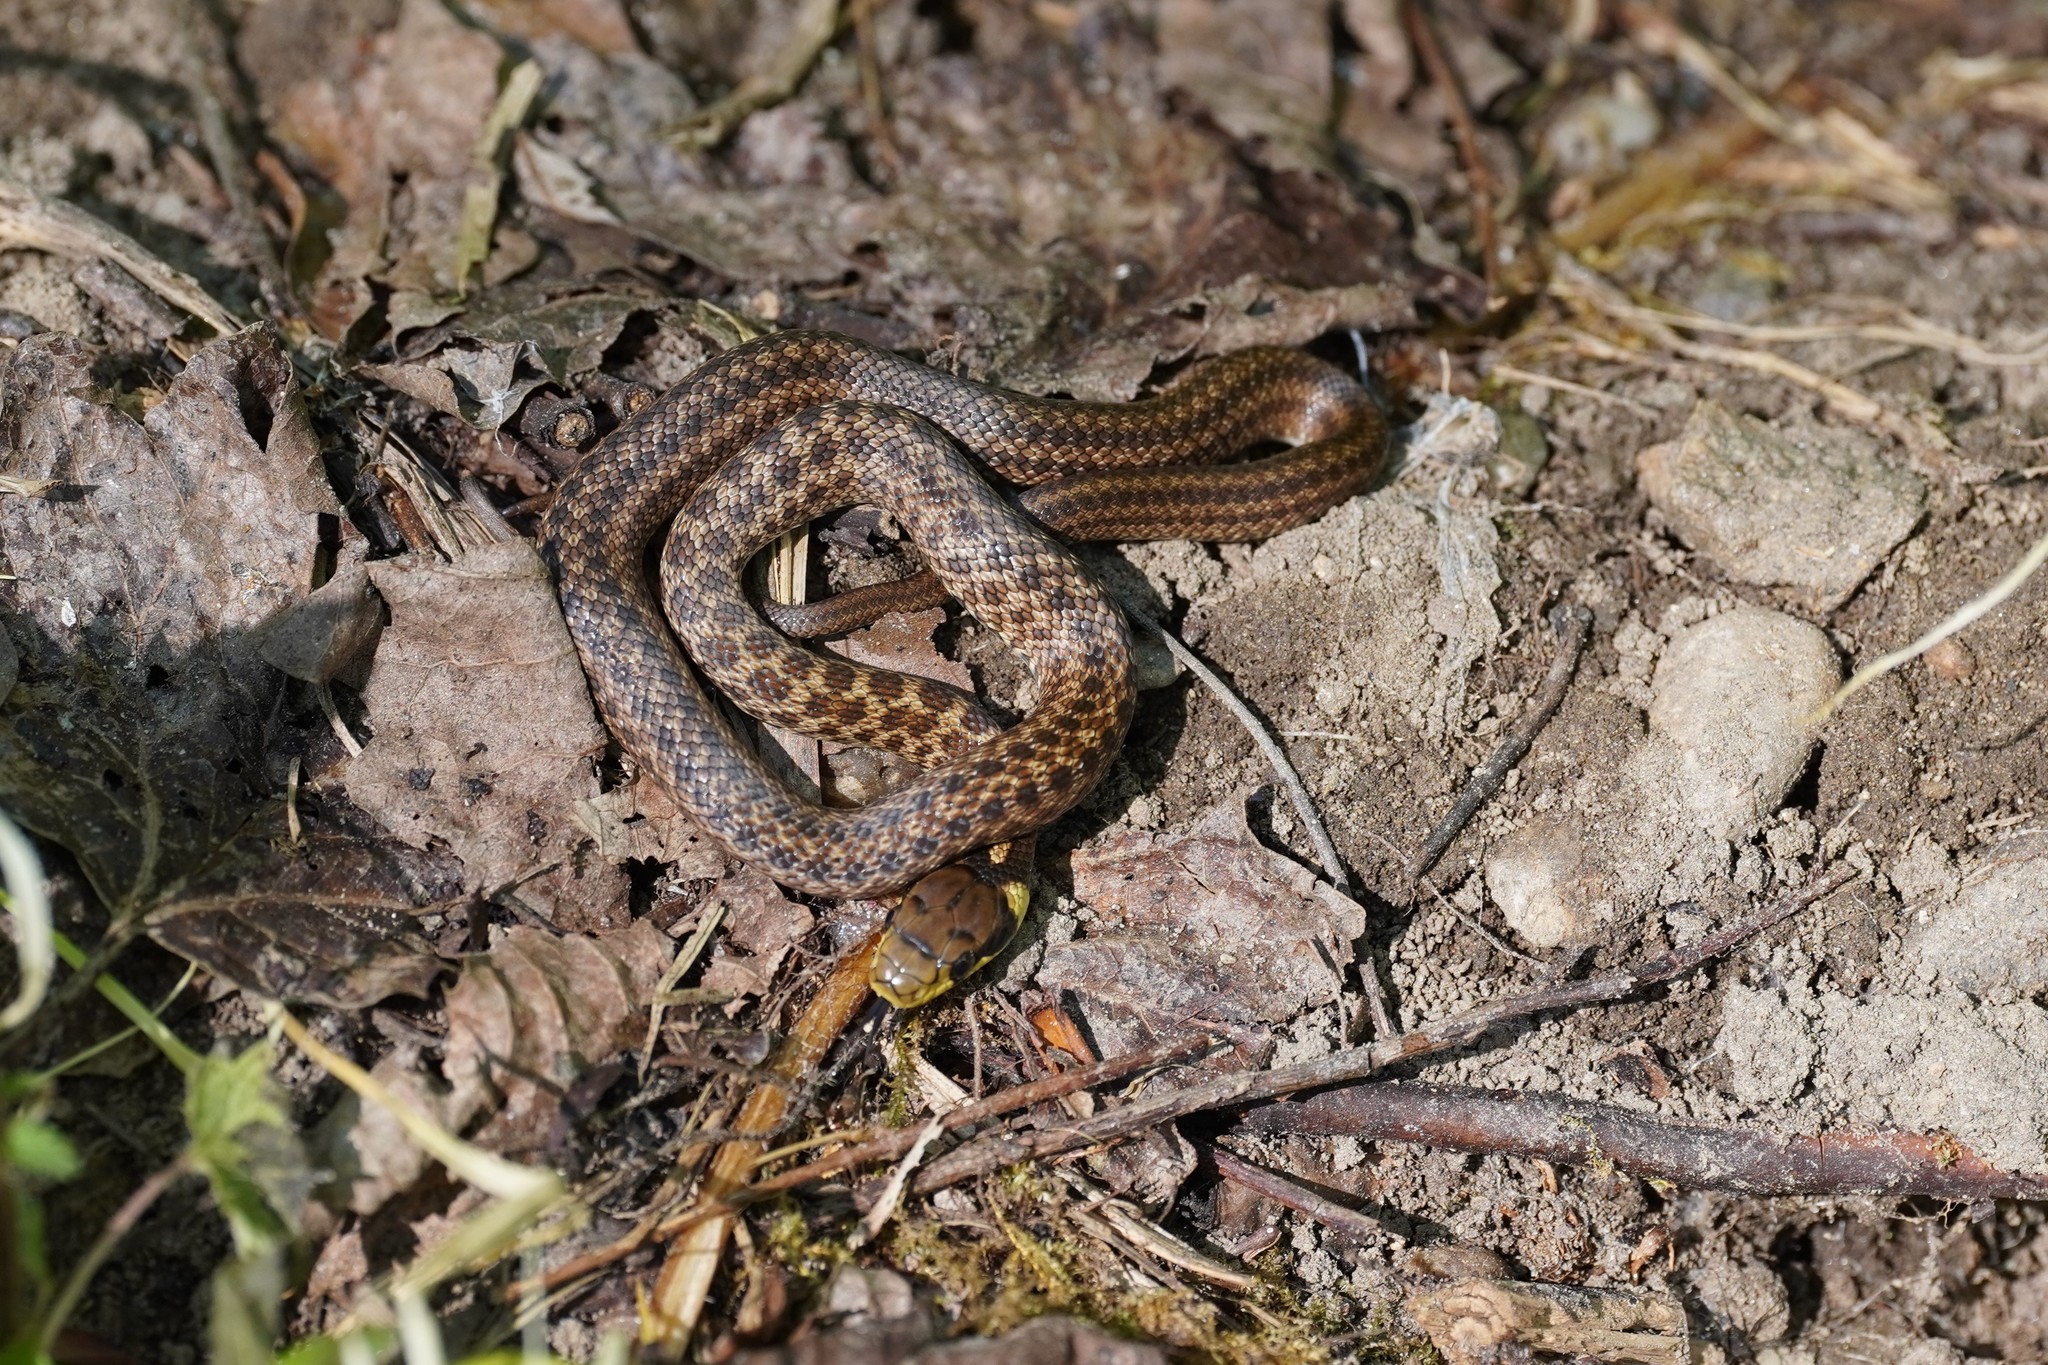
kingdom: Animalia
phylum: Chordata
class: Squamata
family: Colubridae
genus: Zamenis
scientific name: Zamenis longissimus
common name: Aesculapean snake
